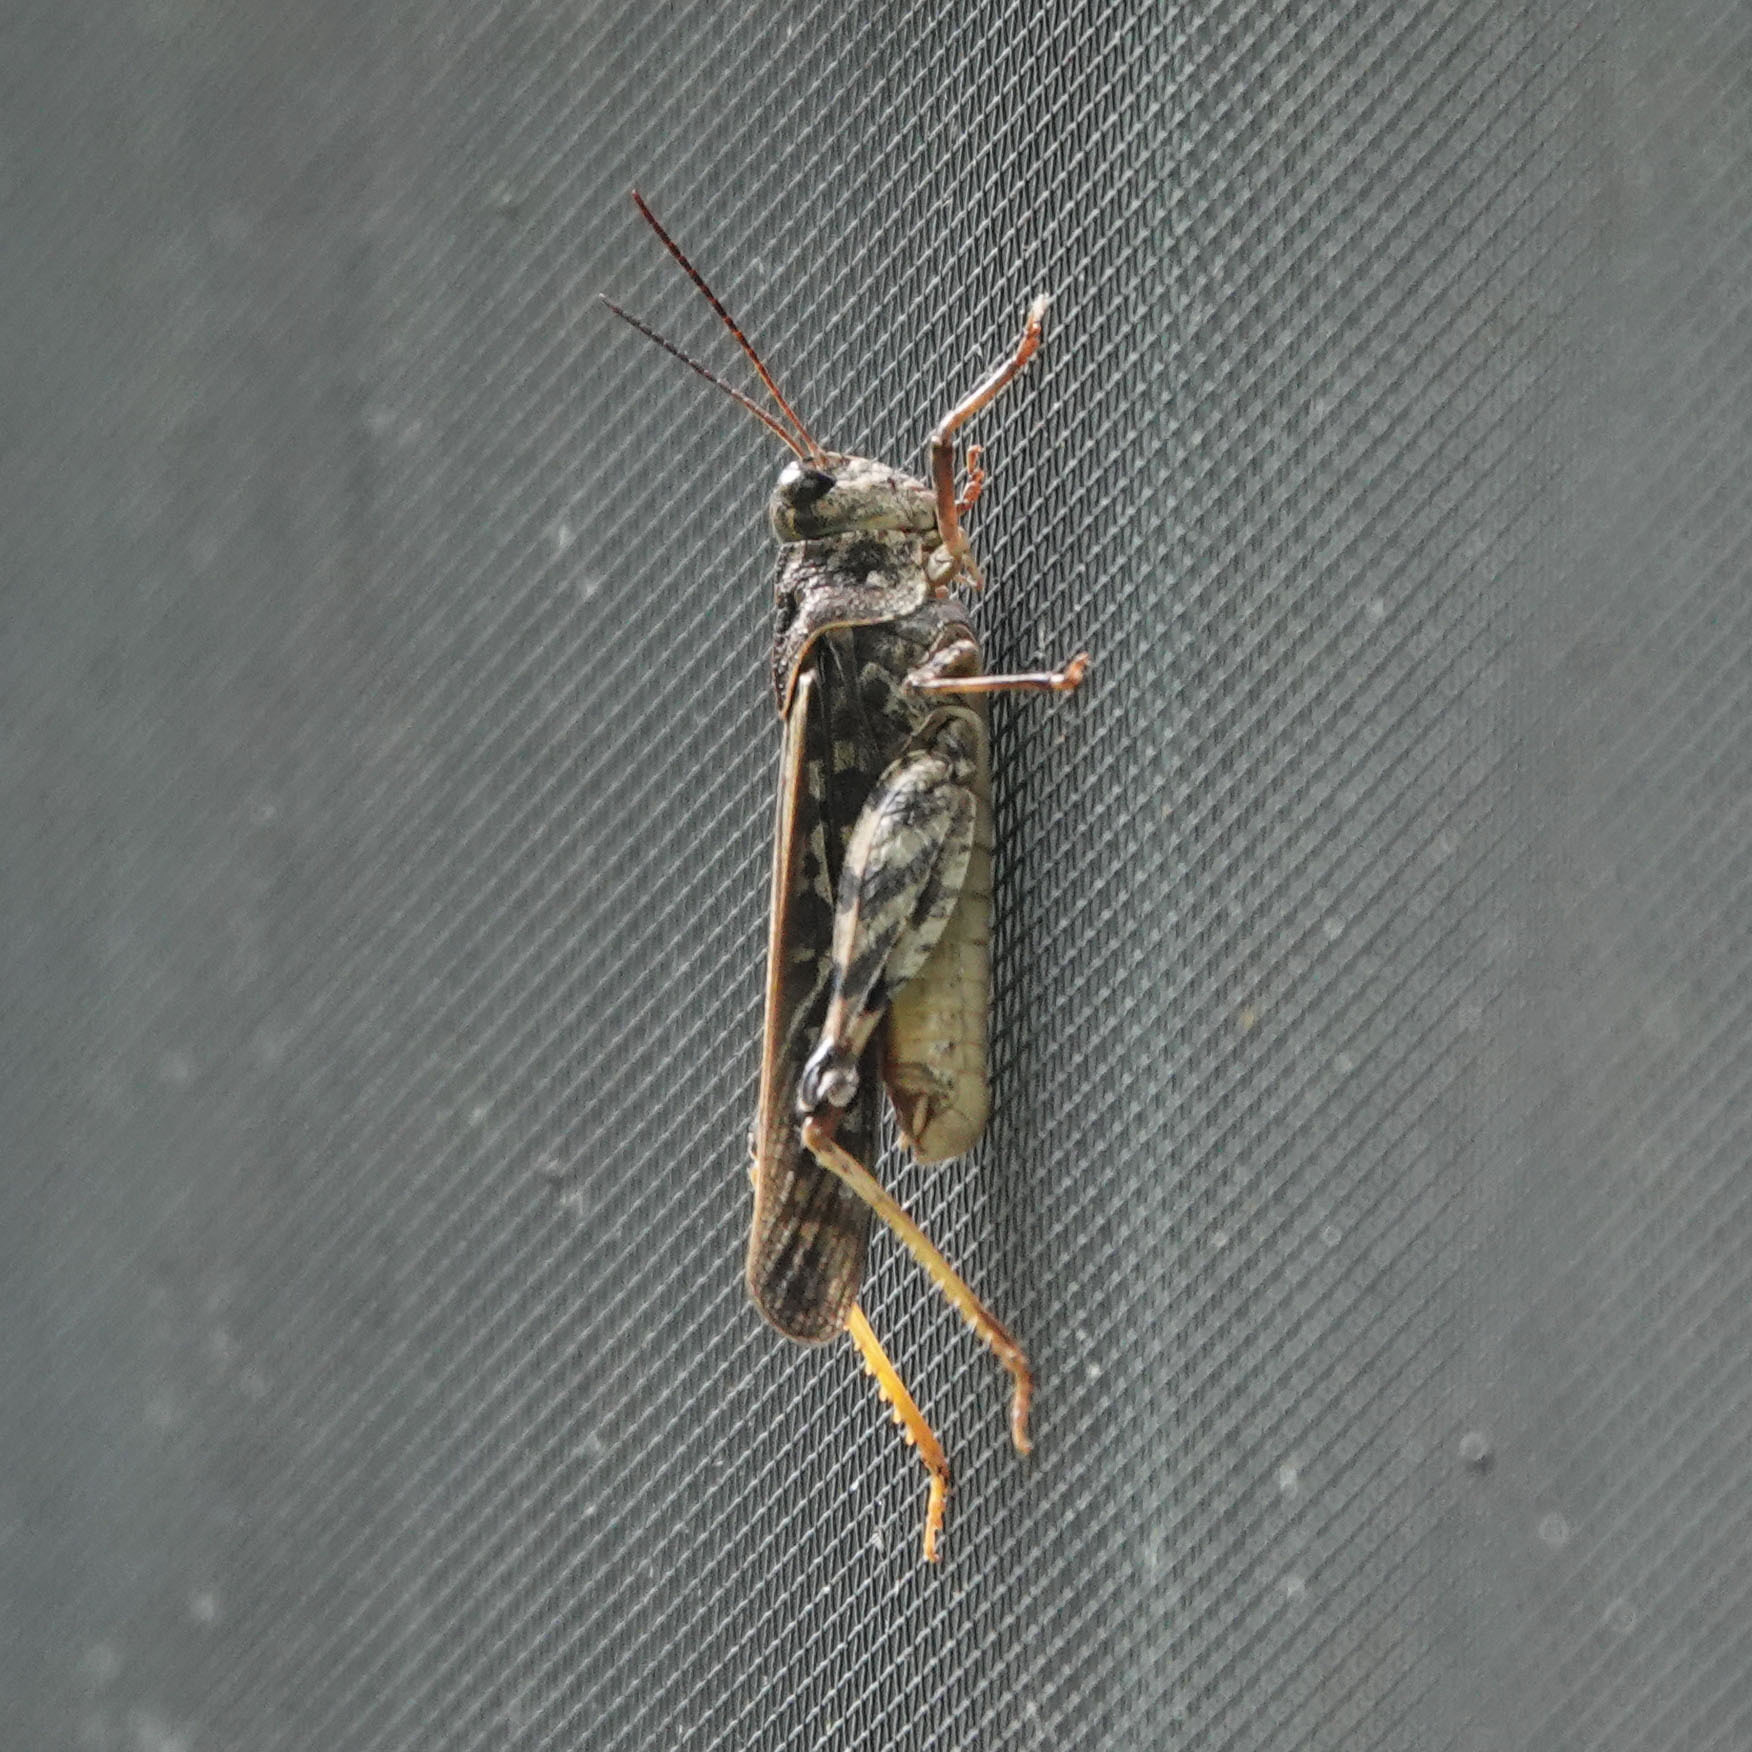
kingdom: Animalia
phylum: Arthropoda
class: Insecta
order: Orthoptera
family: Acrididae
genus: Pardalophora
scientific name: Pardalophora phoenicoptera
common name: Orange-winged grasshopper
